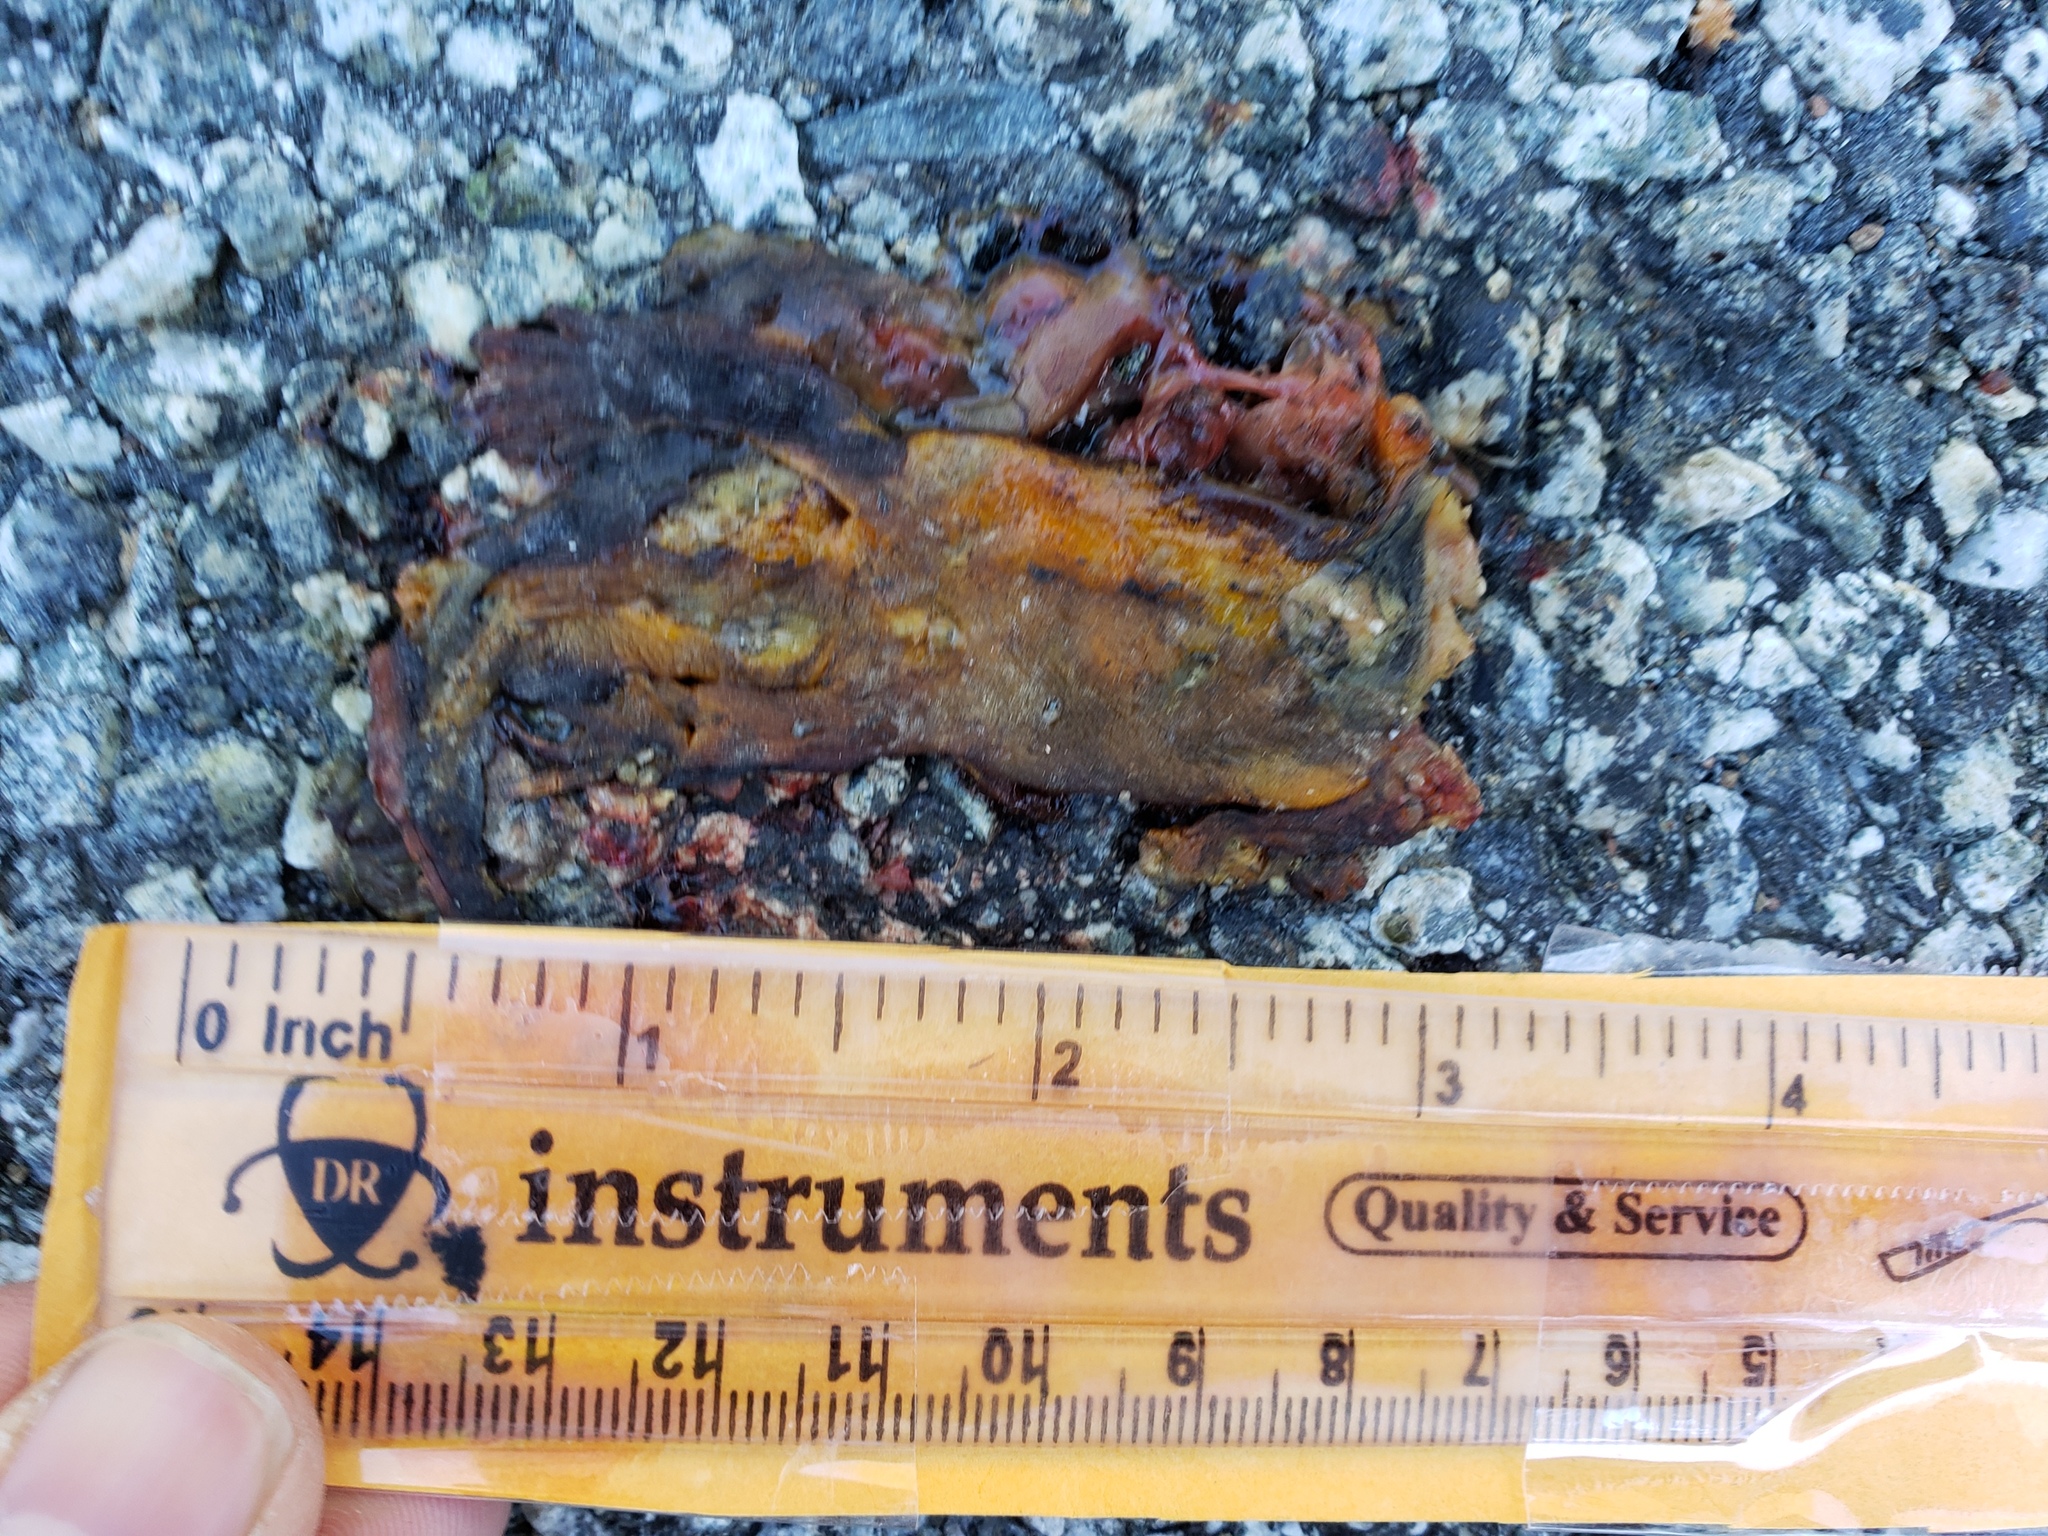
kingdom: Animalia
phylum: Chordata
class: Amphibia
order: Caudata
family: Salamandridae
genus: Taricha
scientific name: Taricha
